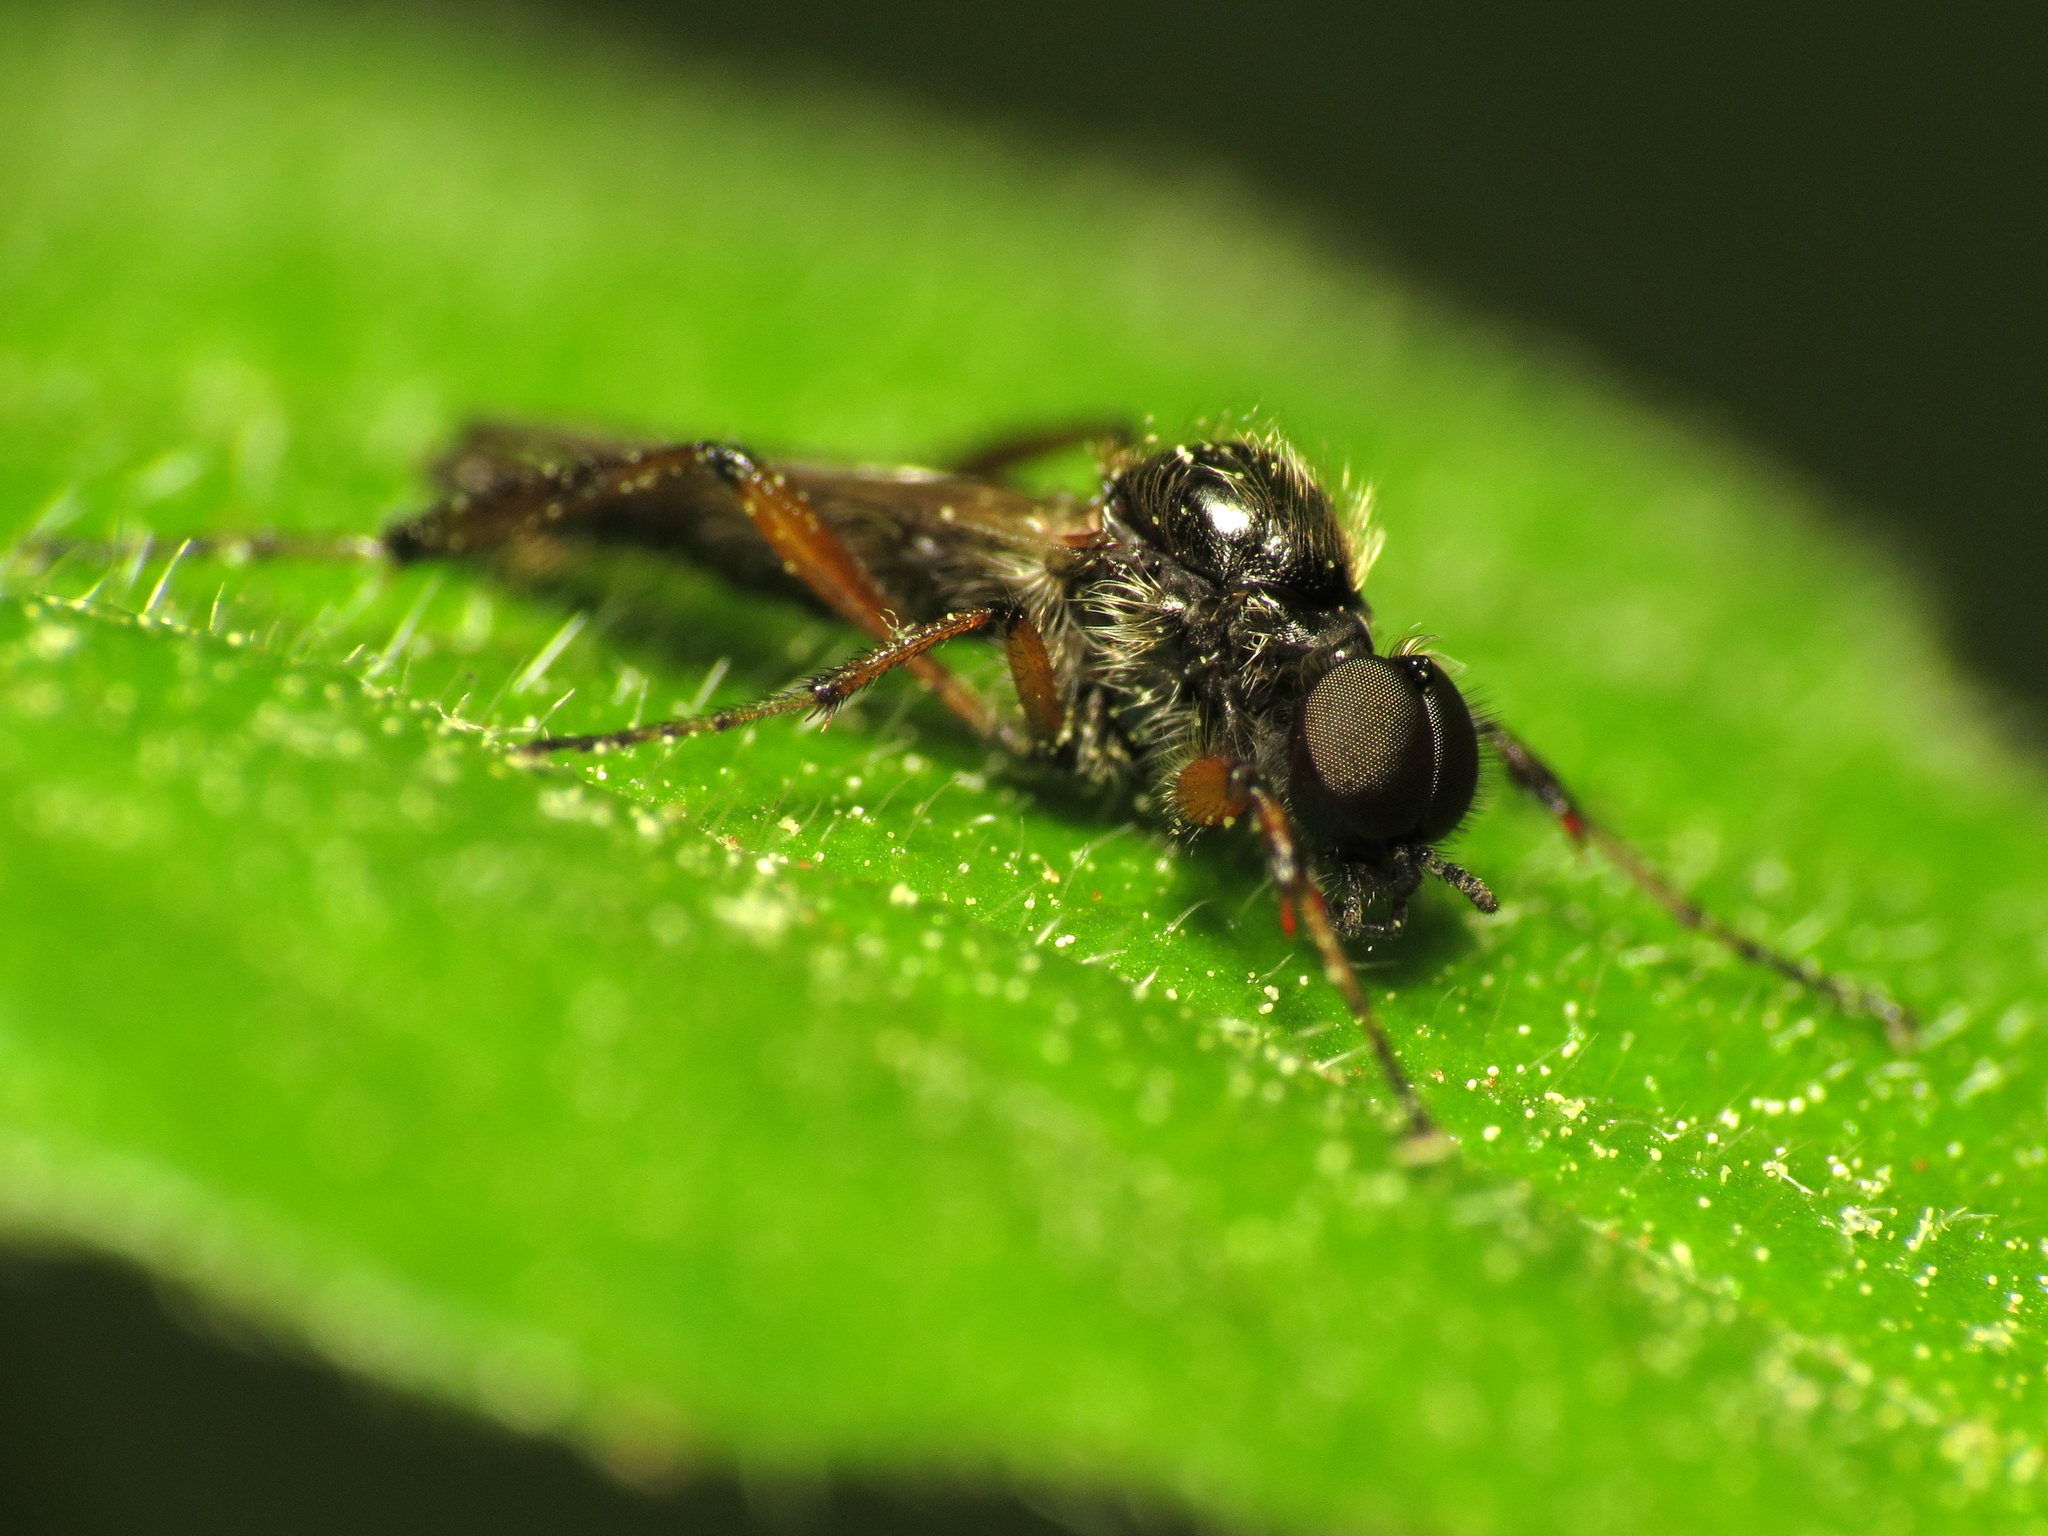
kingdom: Animalia
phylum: Arthropoda
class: Insecta
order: Diptera
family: Bibionidae
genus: Bibio
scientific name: Bibio articulatus
